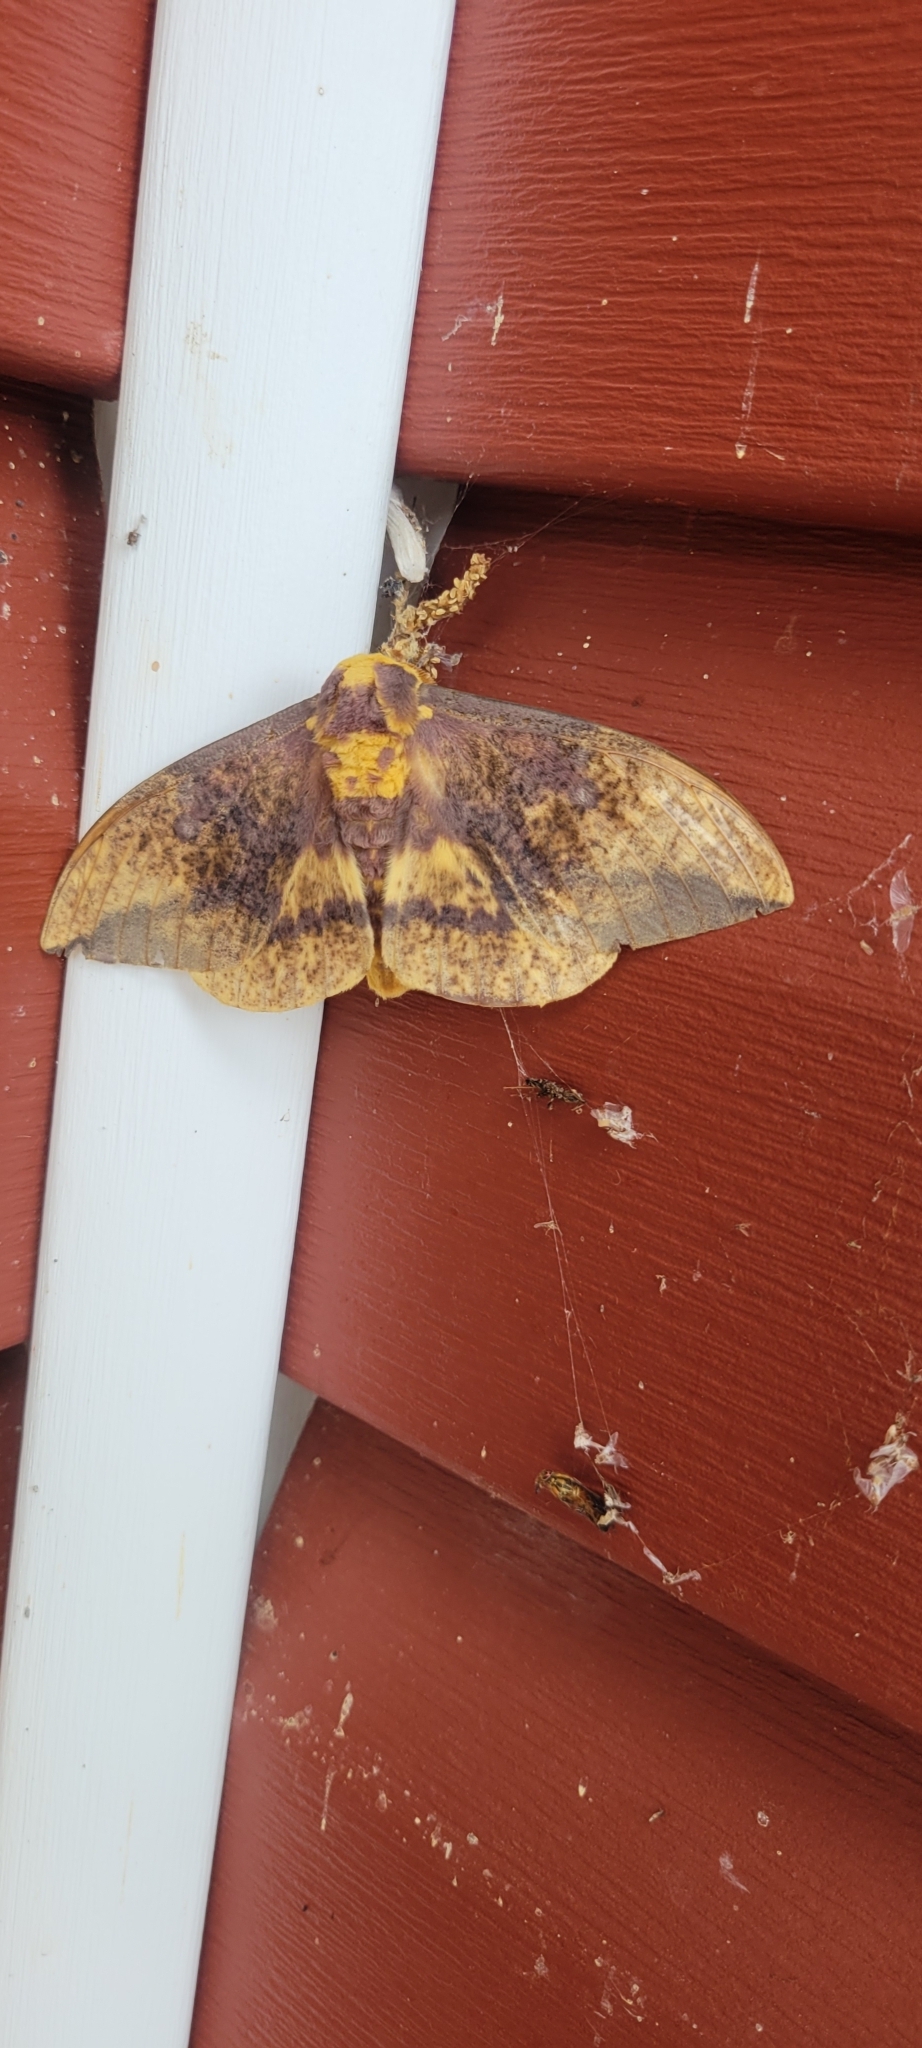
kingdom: Animalia
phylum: Arthropoda
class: Insecta
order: Lepidoptera
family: Saturniidae
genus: Eacles
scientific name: Eacles
